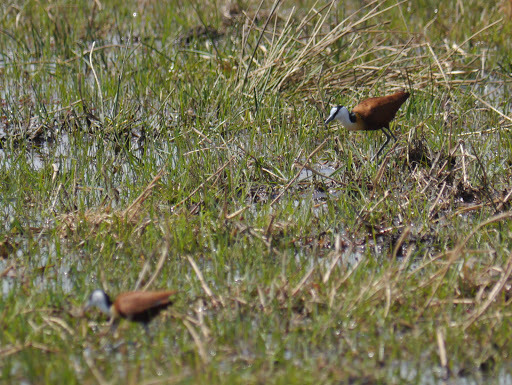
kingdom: Animalia
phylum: Chordata
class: Aves
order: Charadriiformes
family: Jacanidae
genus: Actophilornis
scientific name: Actophilornis africanus
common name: African jacana
